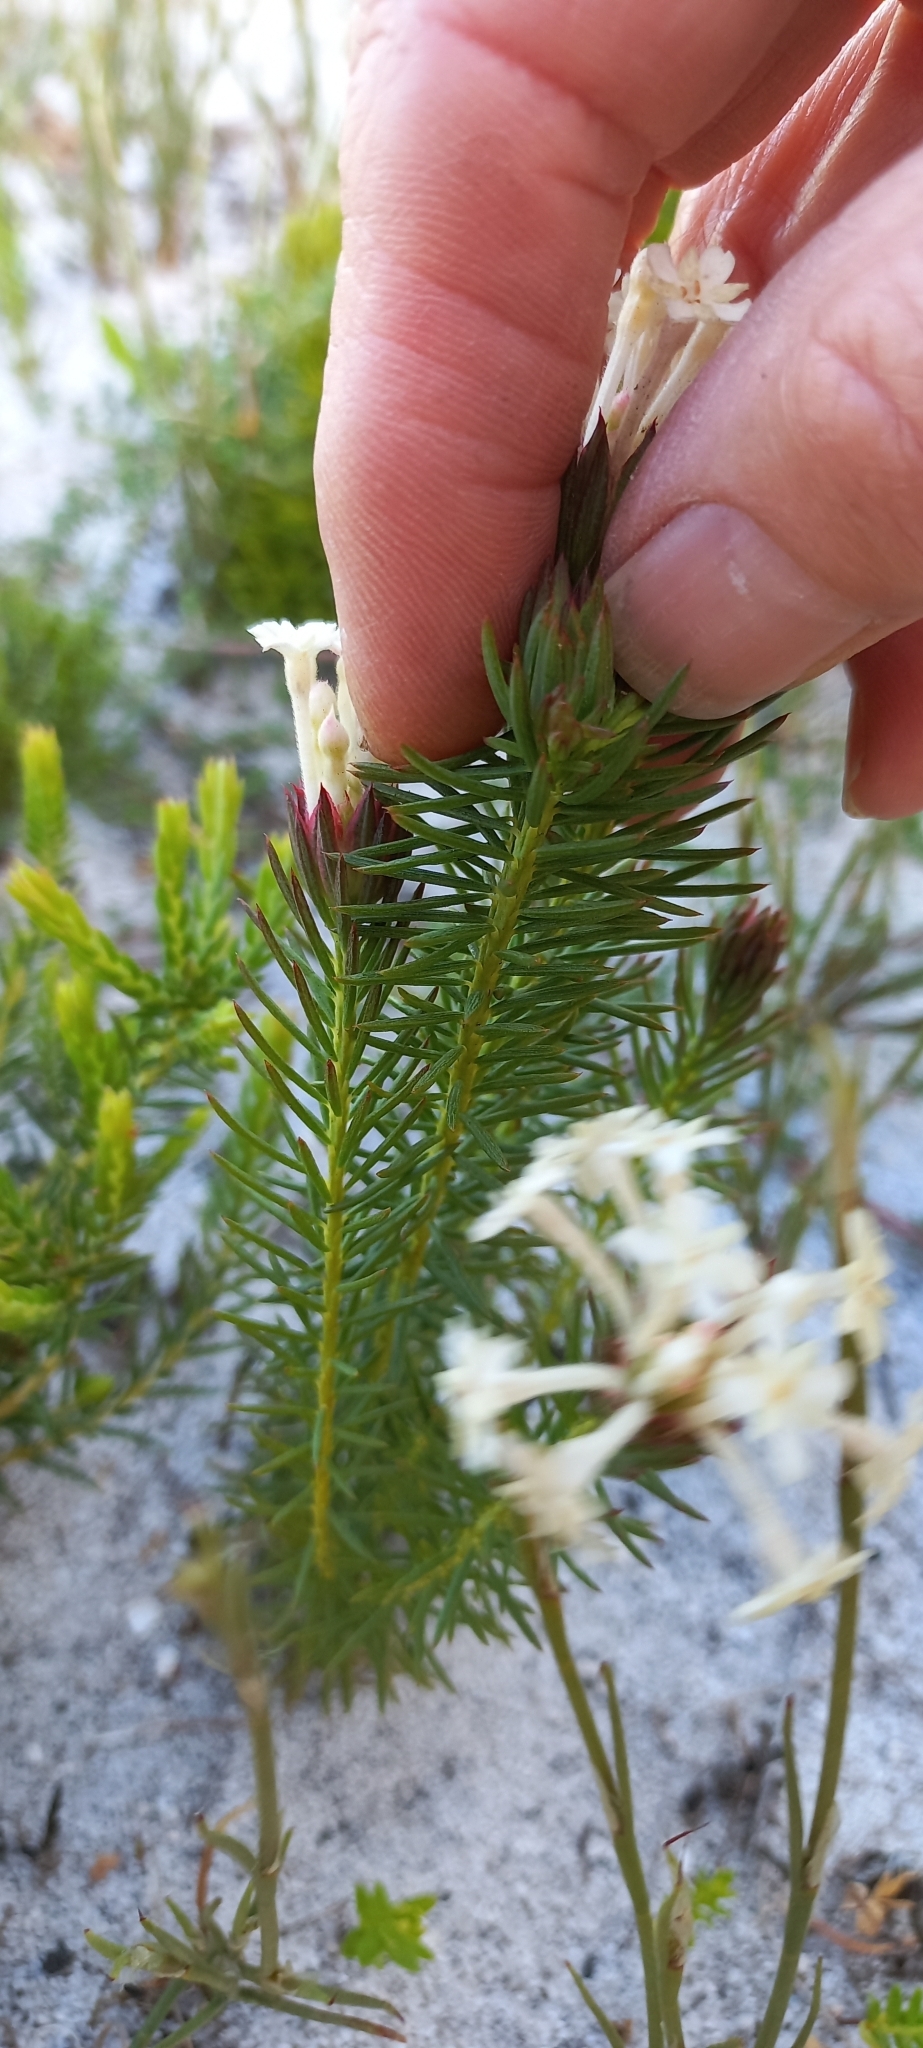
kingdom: Plantae
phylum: Tracheophyta
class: Magnoliopsida
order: Malvales
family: Thymelaeaceae
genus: Gnidia
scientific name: Gnidia pinifolia
